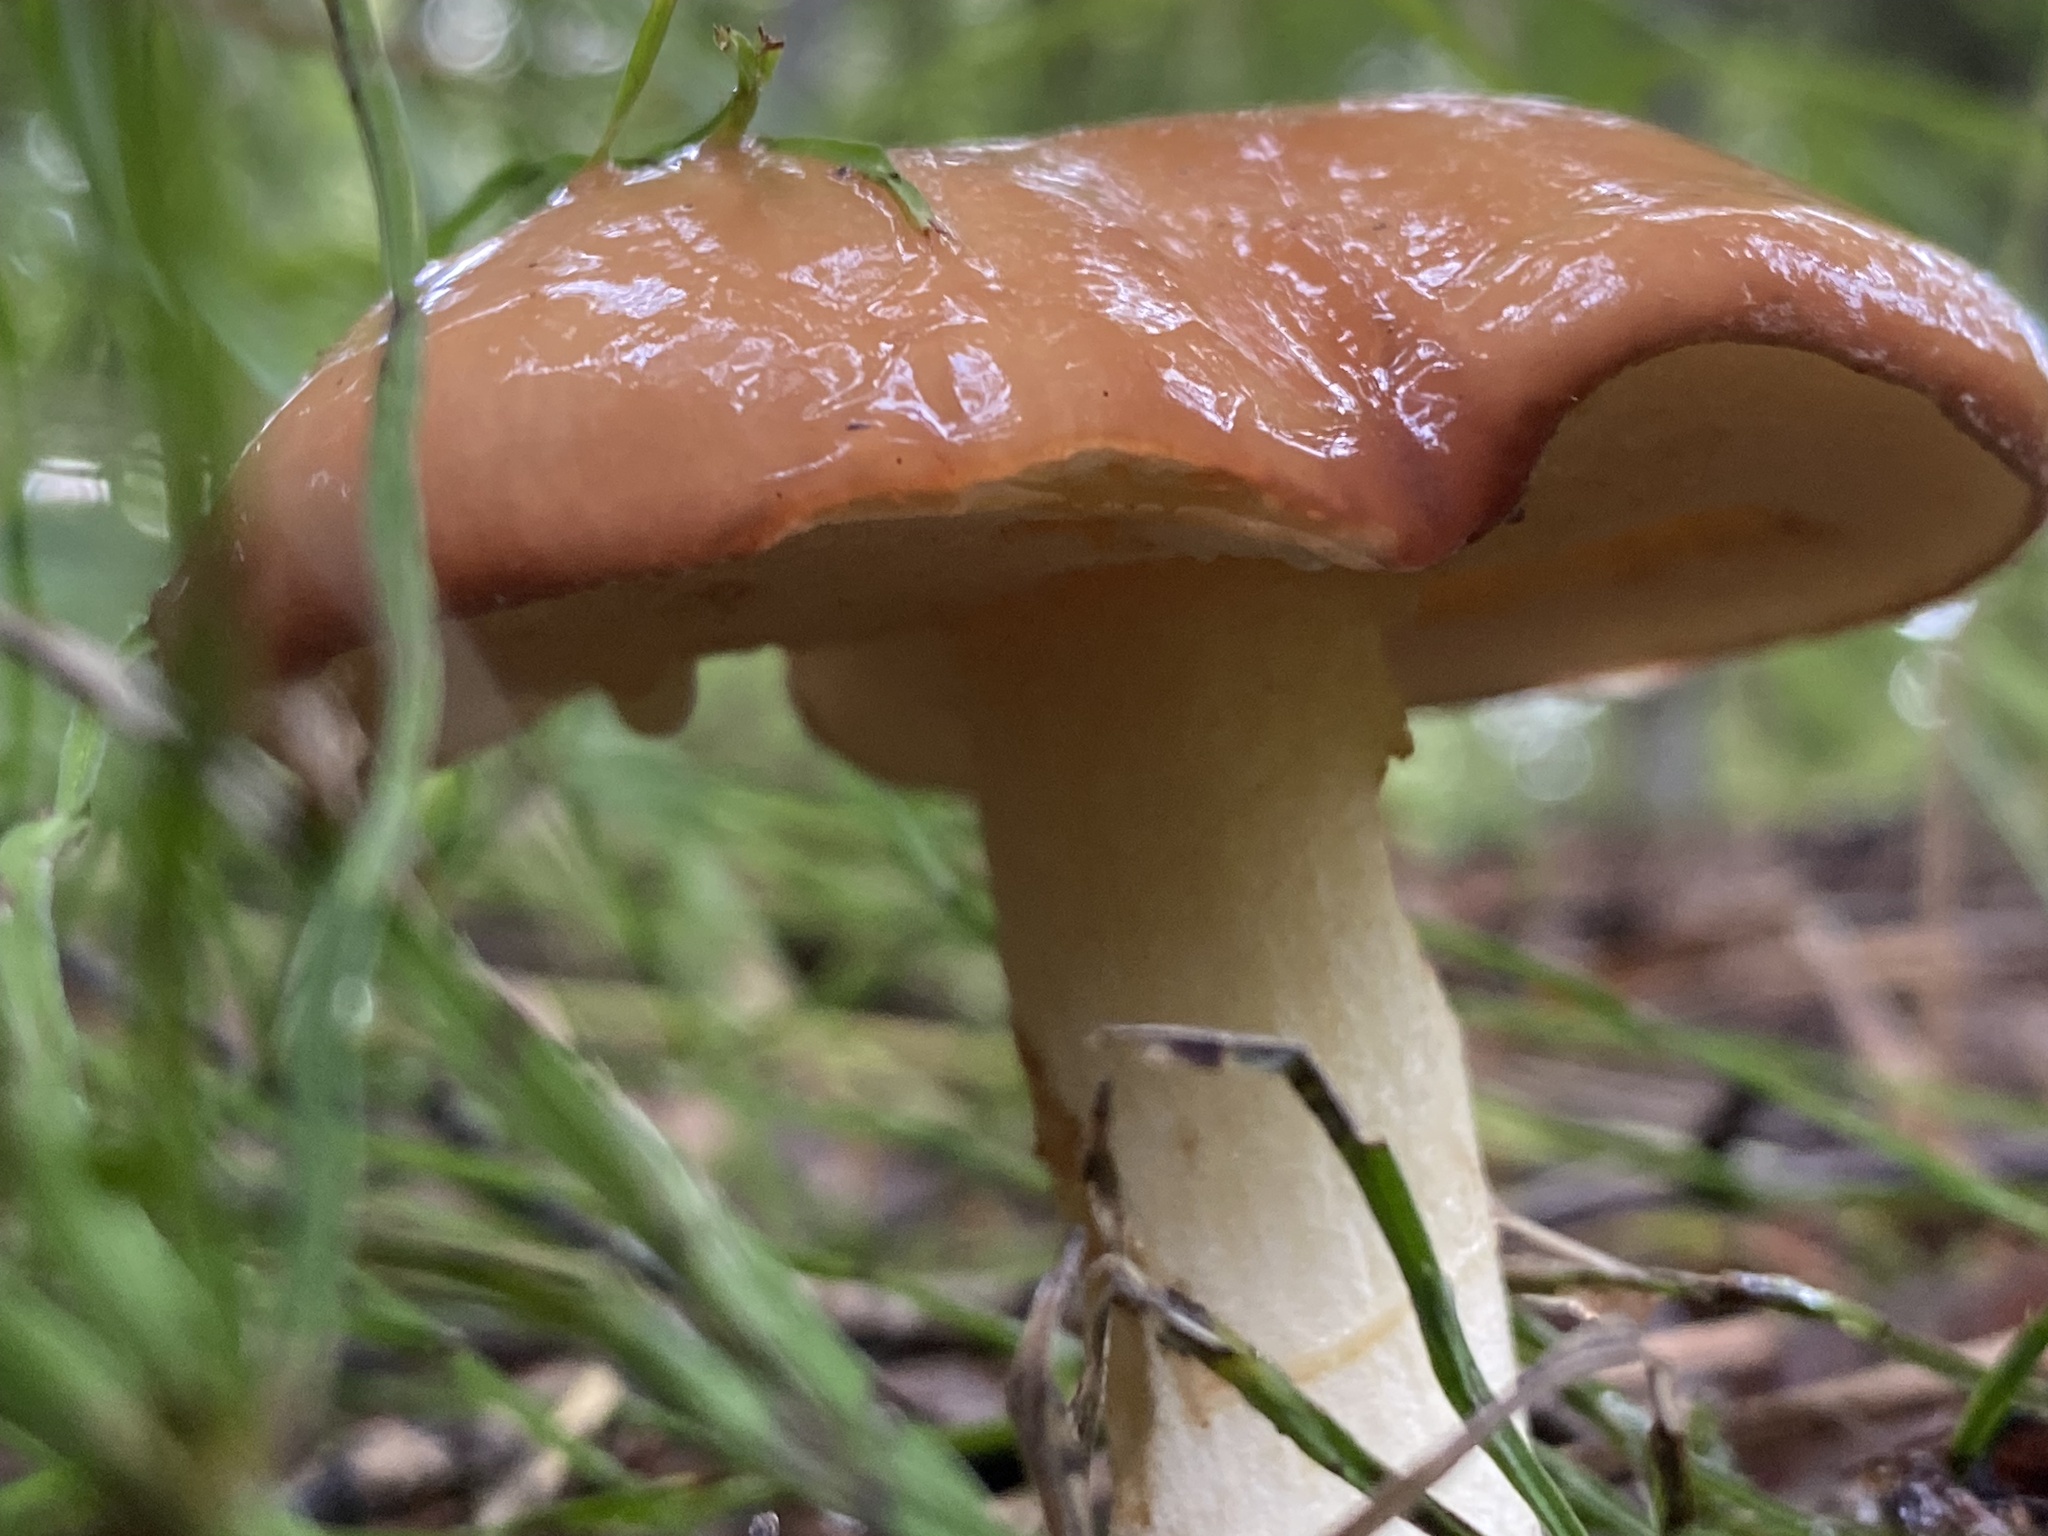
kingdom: Fungi
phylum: Basidiomycota
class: Agaricomycetes
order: Boletales
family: Suillaceae
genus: Suillus
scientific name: Suillus granulatus
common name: Weeping bolete
